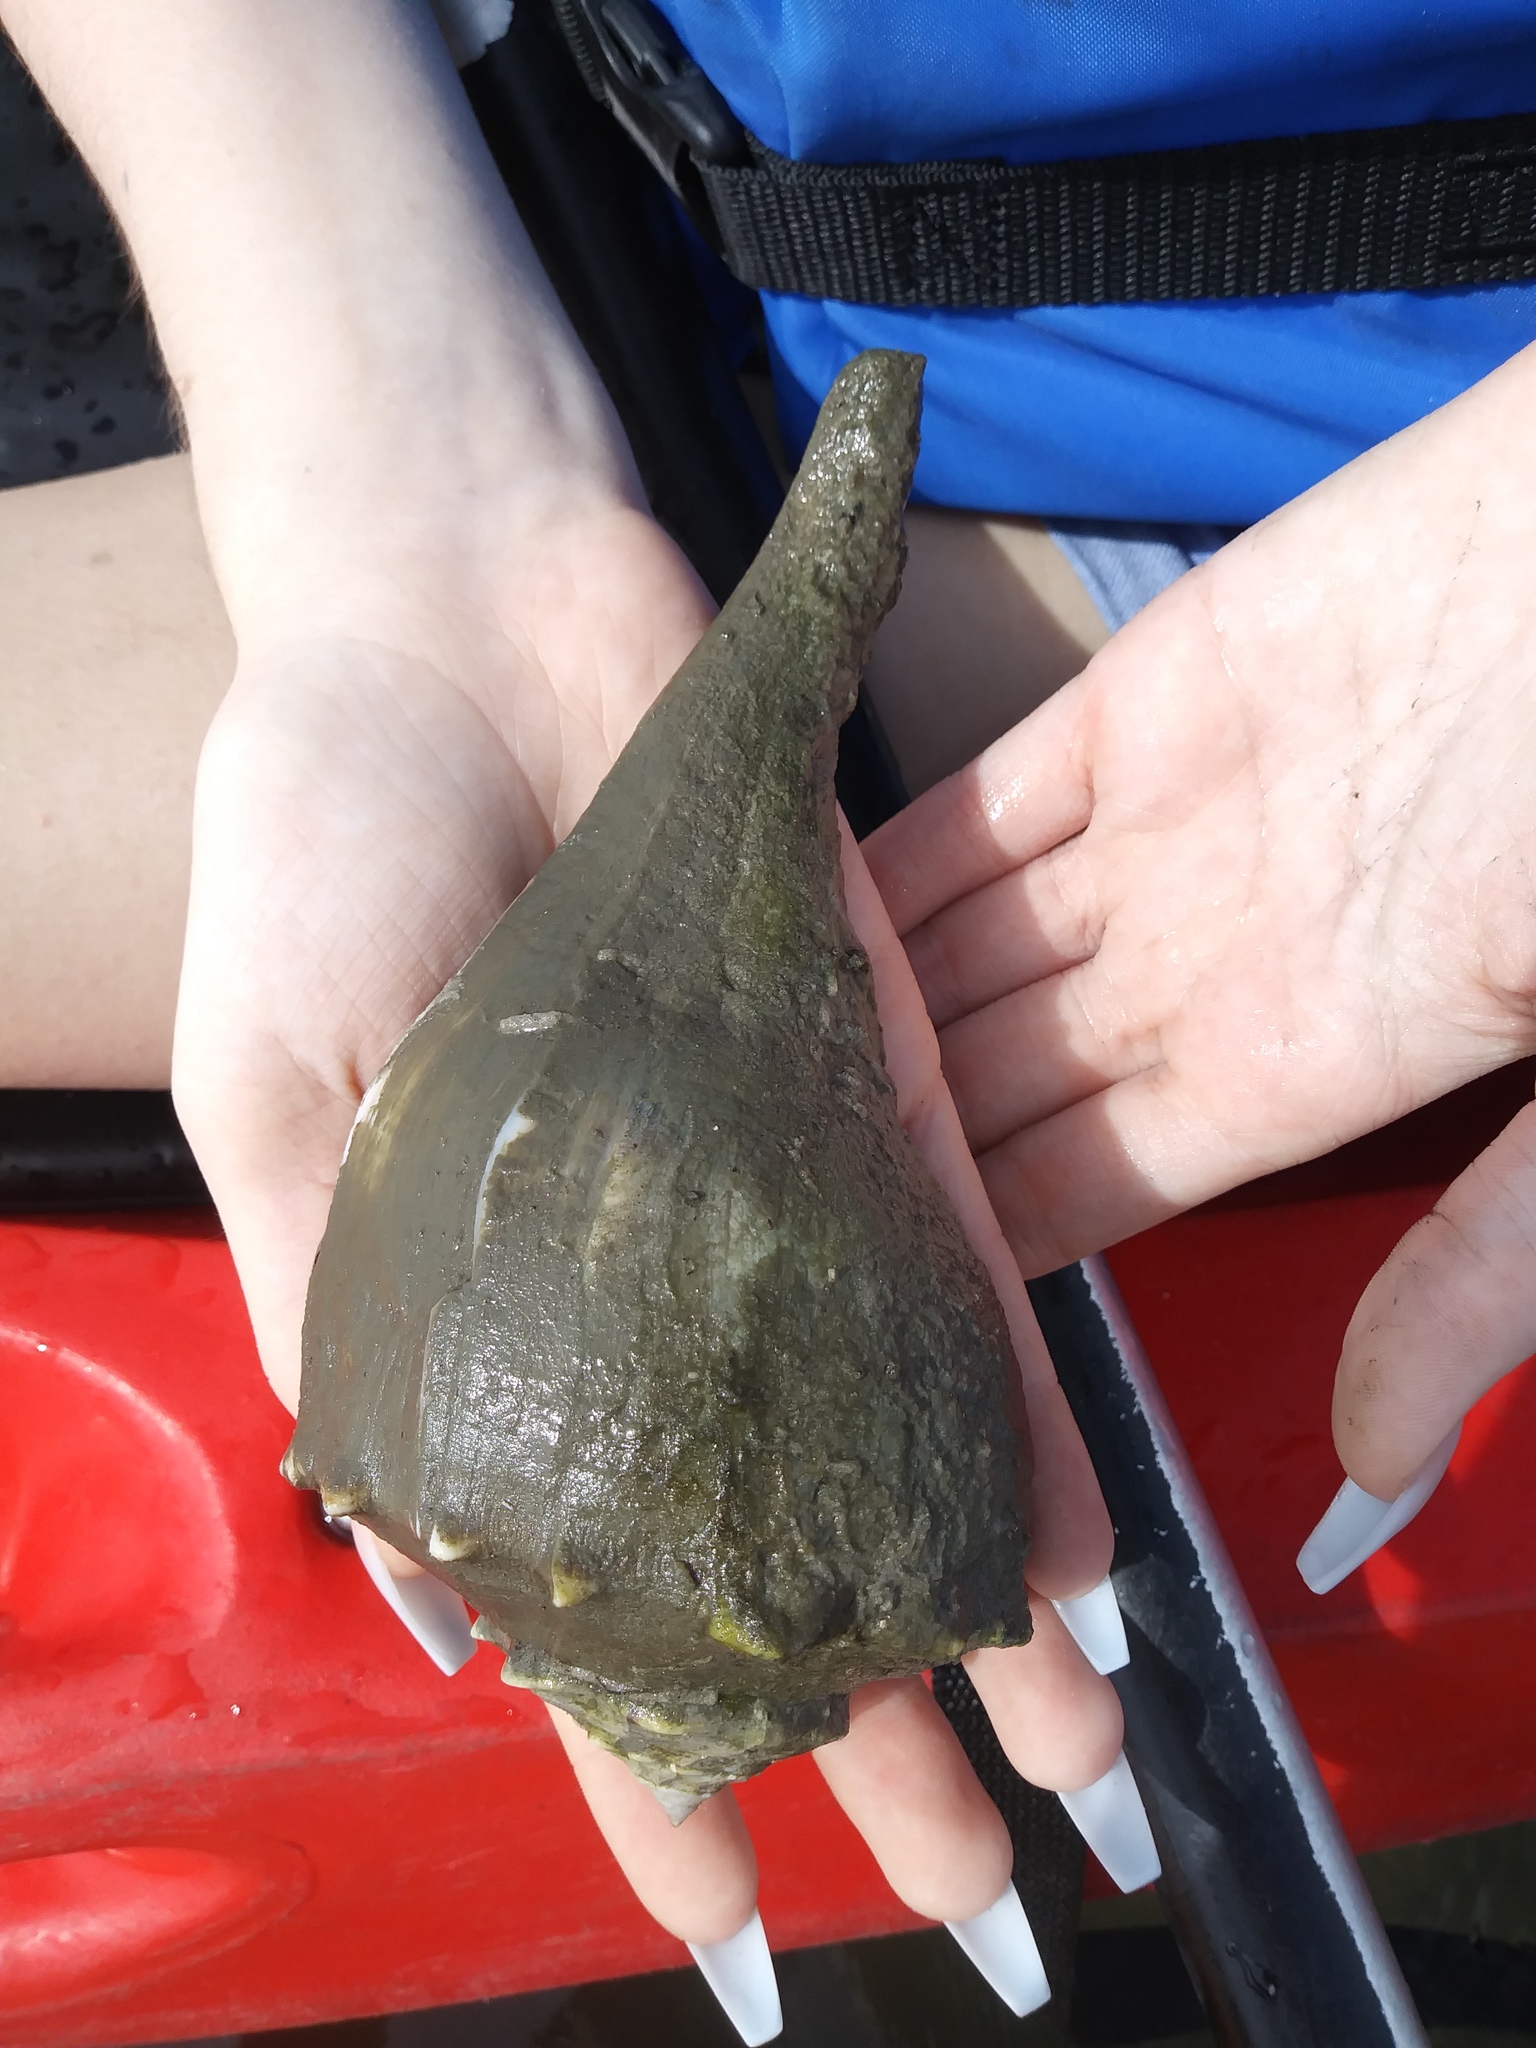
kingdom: Animalia
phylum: Mollusca
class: Gastropoda
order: Neogastropoda
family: Busyconidae
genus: Sinistrofulgur
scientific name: Sinistrofulgur sinistrum
